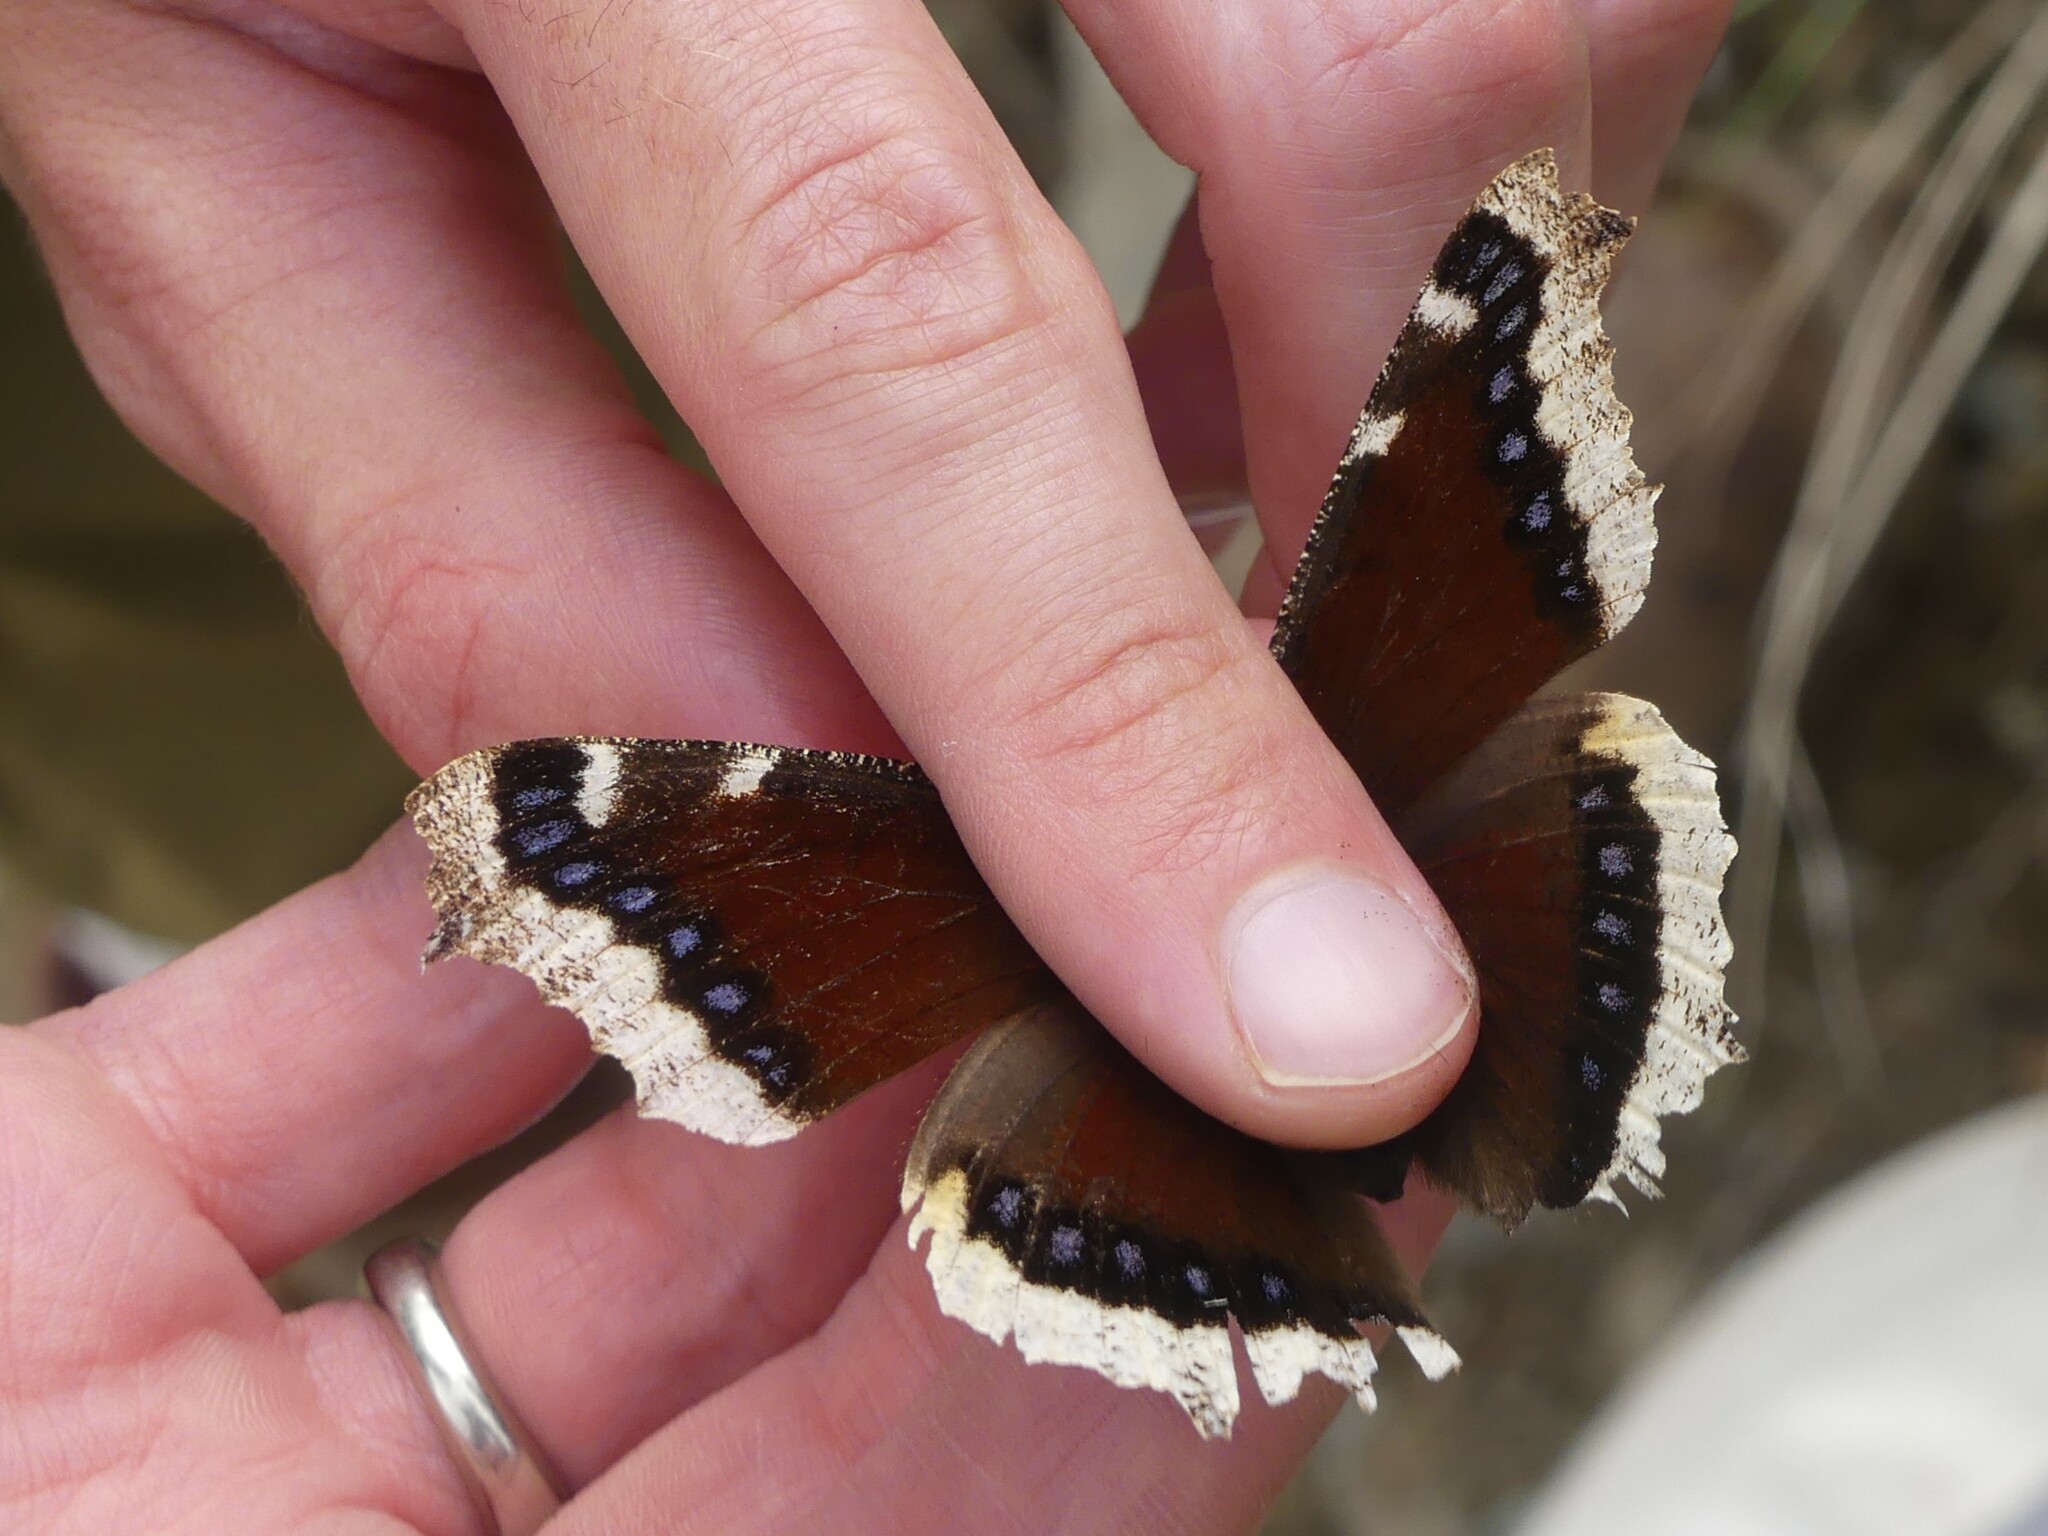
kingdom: Animalia
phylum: Arthropoda
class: Insecta
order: Lepidoptera
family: Nymphalidae
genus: Nymphalis
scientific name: Nymphalis antiopa
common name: Camberwell beauty
